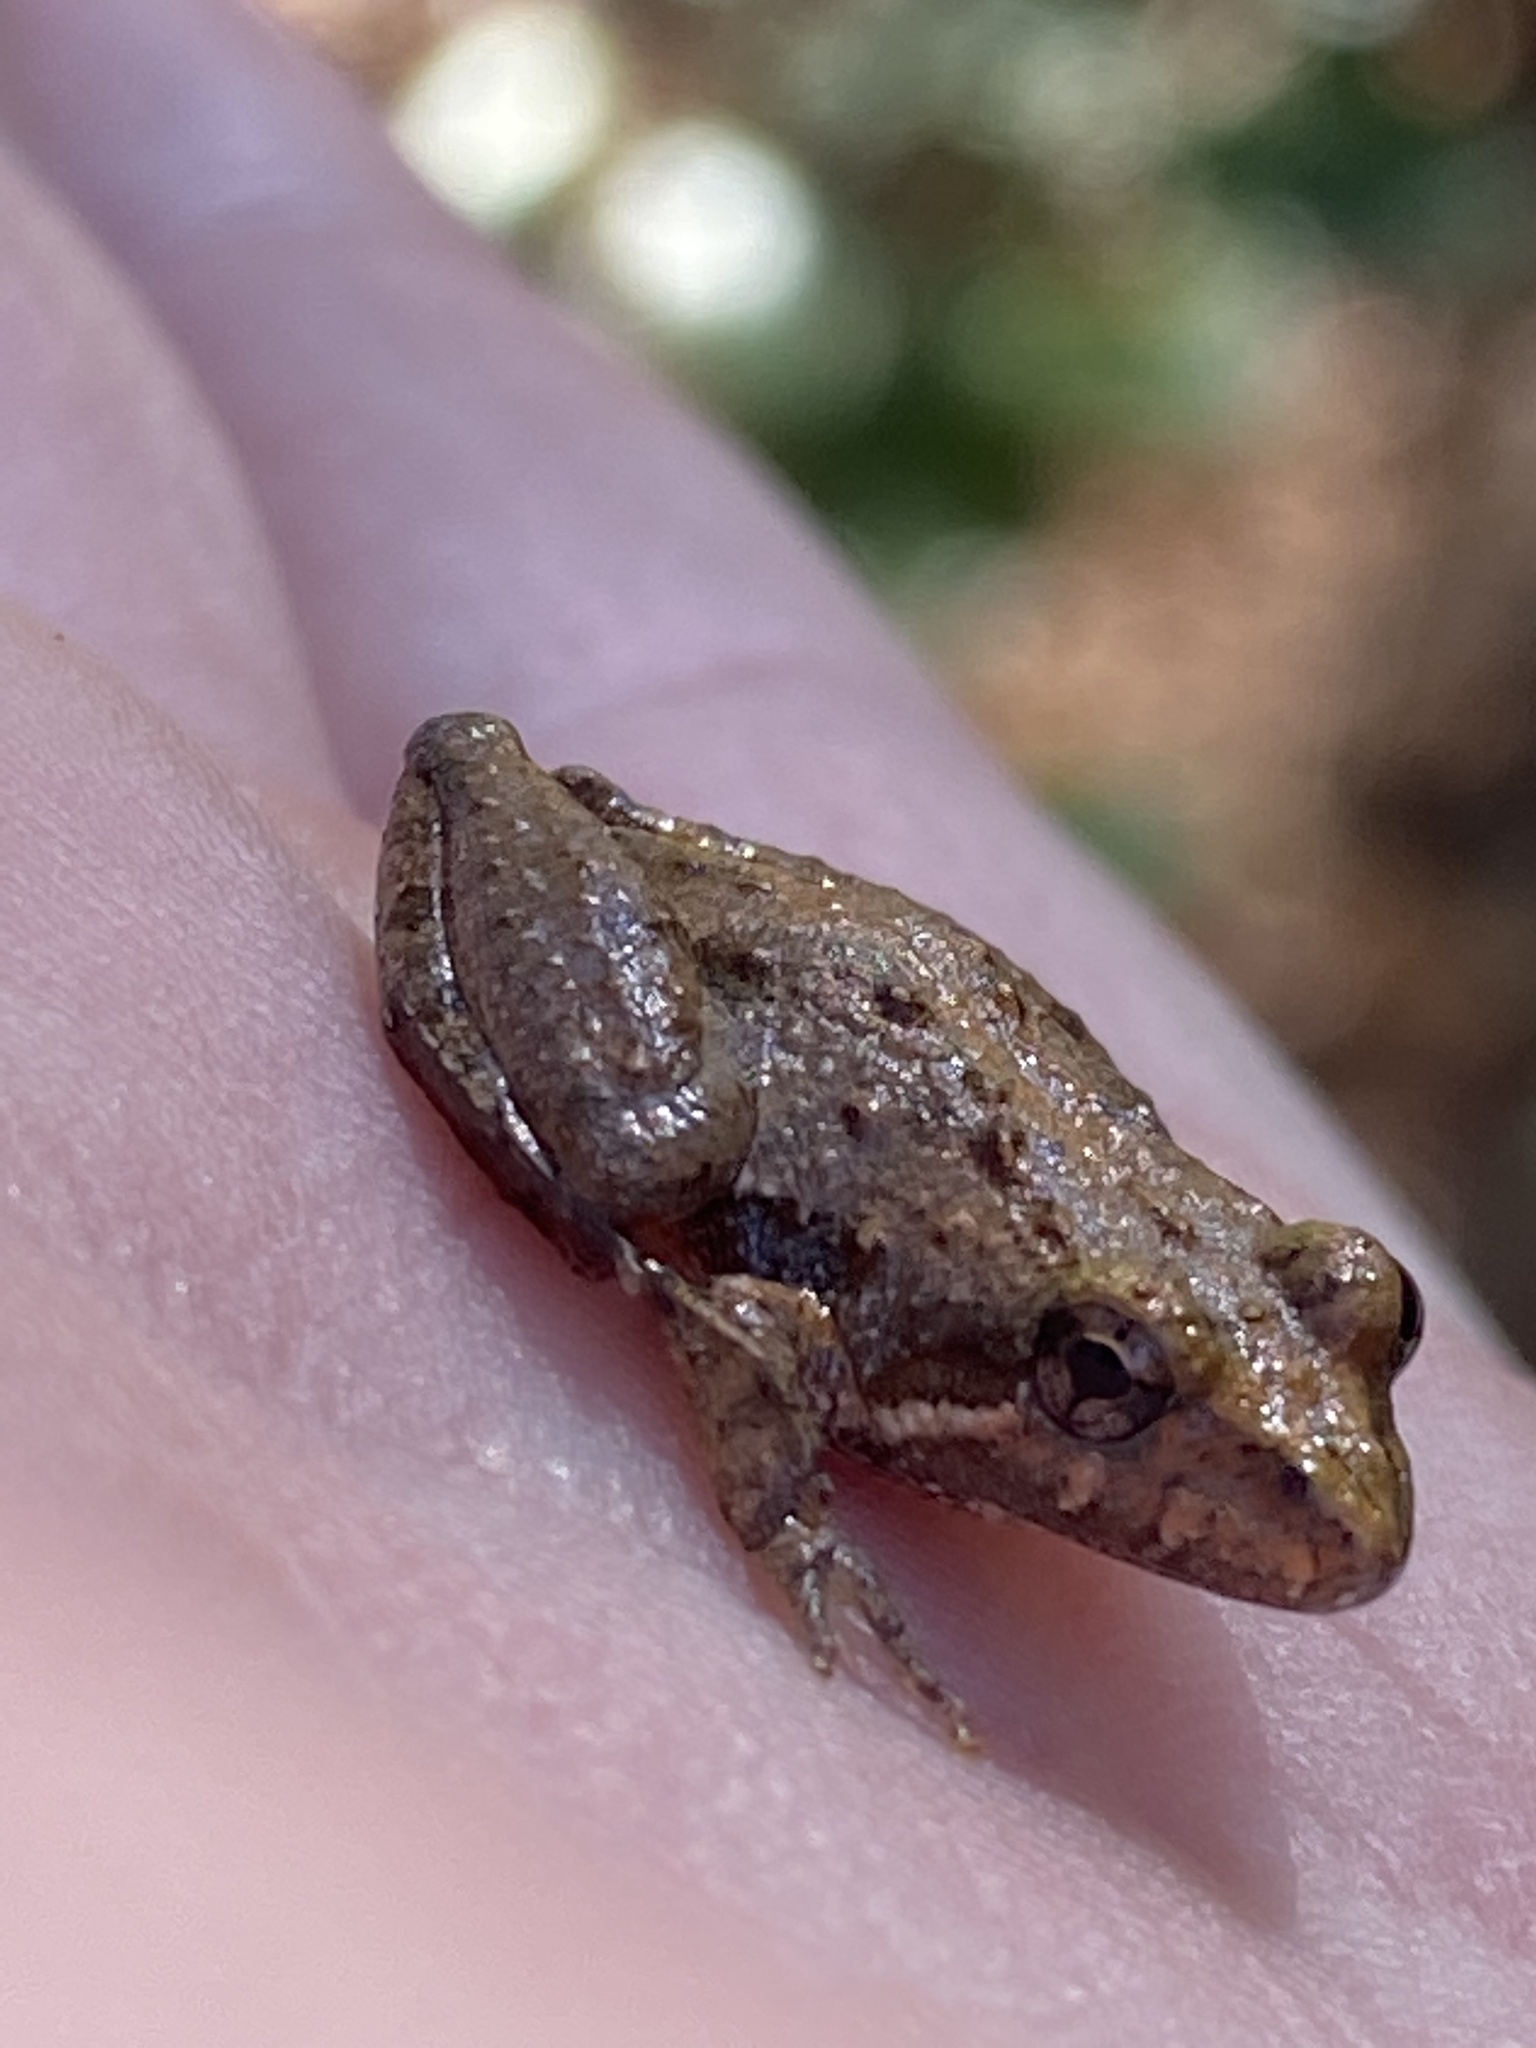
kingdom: Animalia
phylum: Chordata
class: Amphibia
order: Anura
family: Hylidae
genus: Acris
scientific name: Acris gryllus
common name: Southern cricket frog
